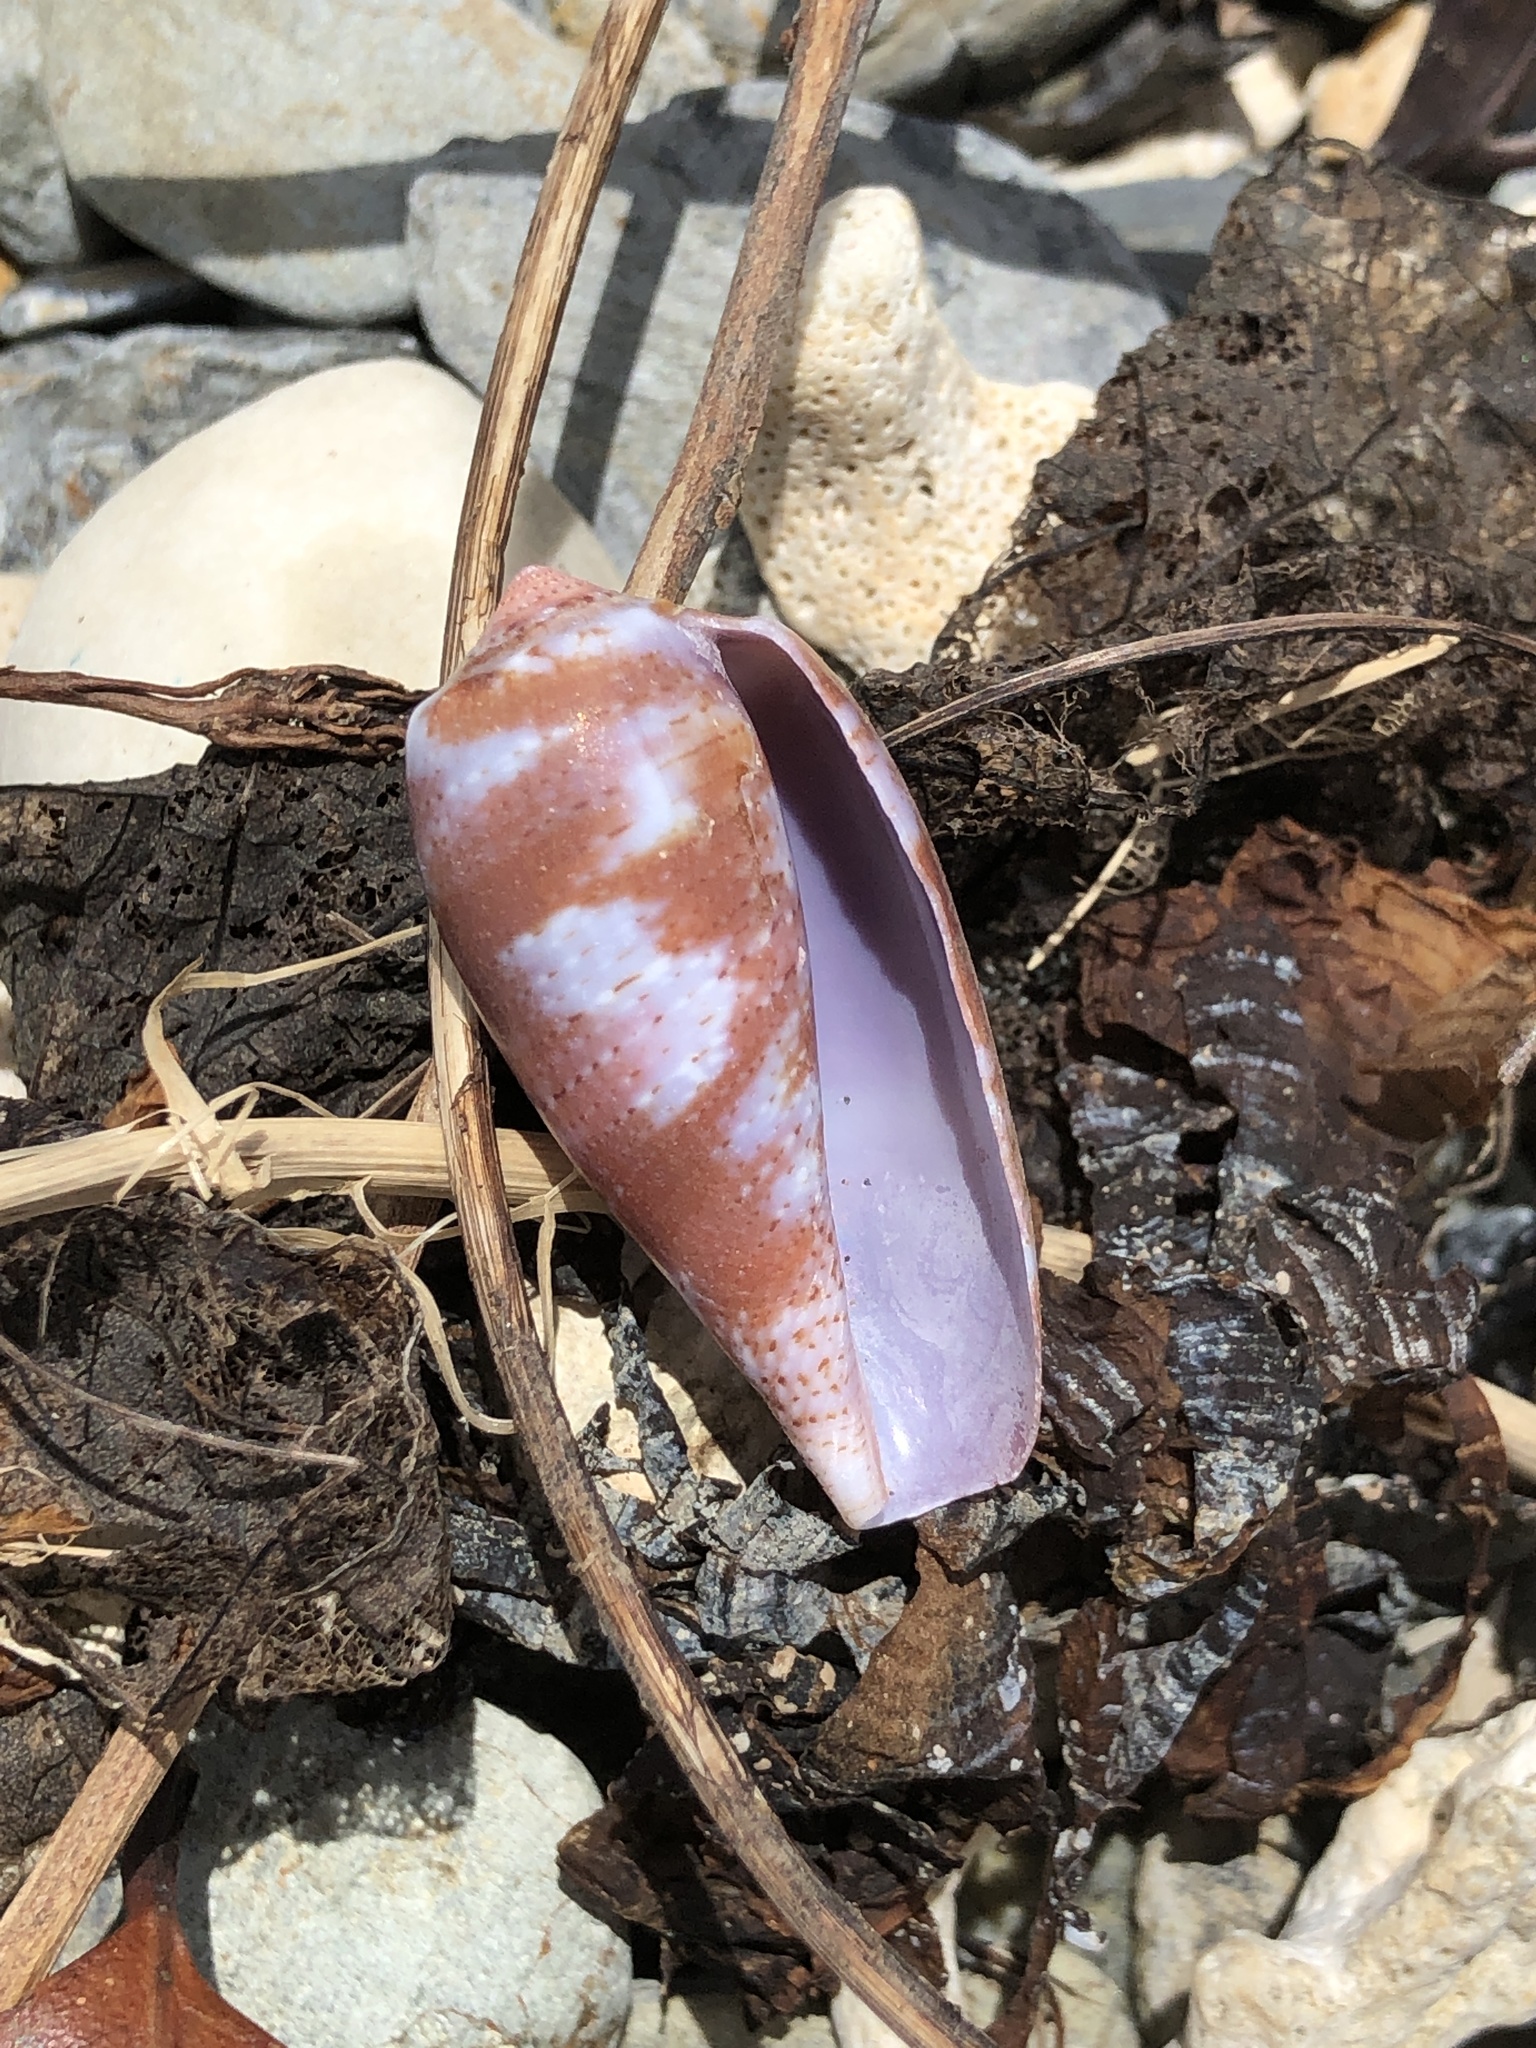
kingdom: Animalia
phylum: Mollusca
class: Gastropoda
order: Neogastropoda
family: Conidae
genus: Conus
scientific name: Conus tulipa
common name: Tulip cone
